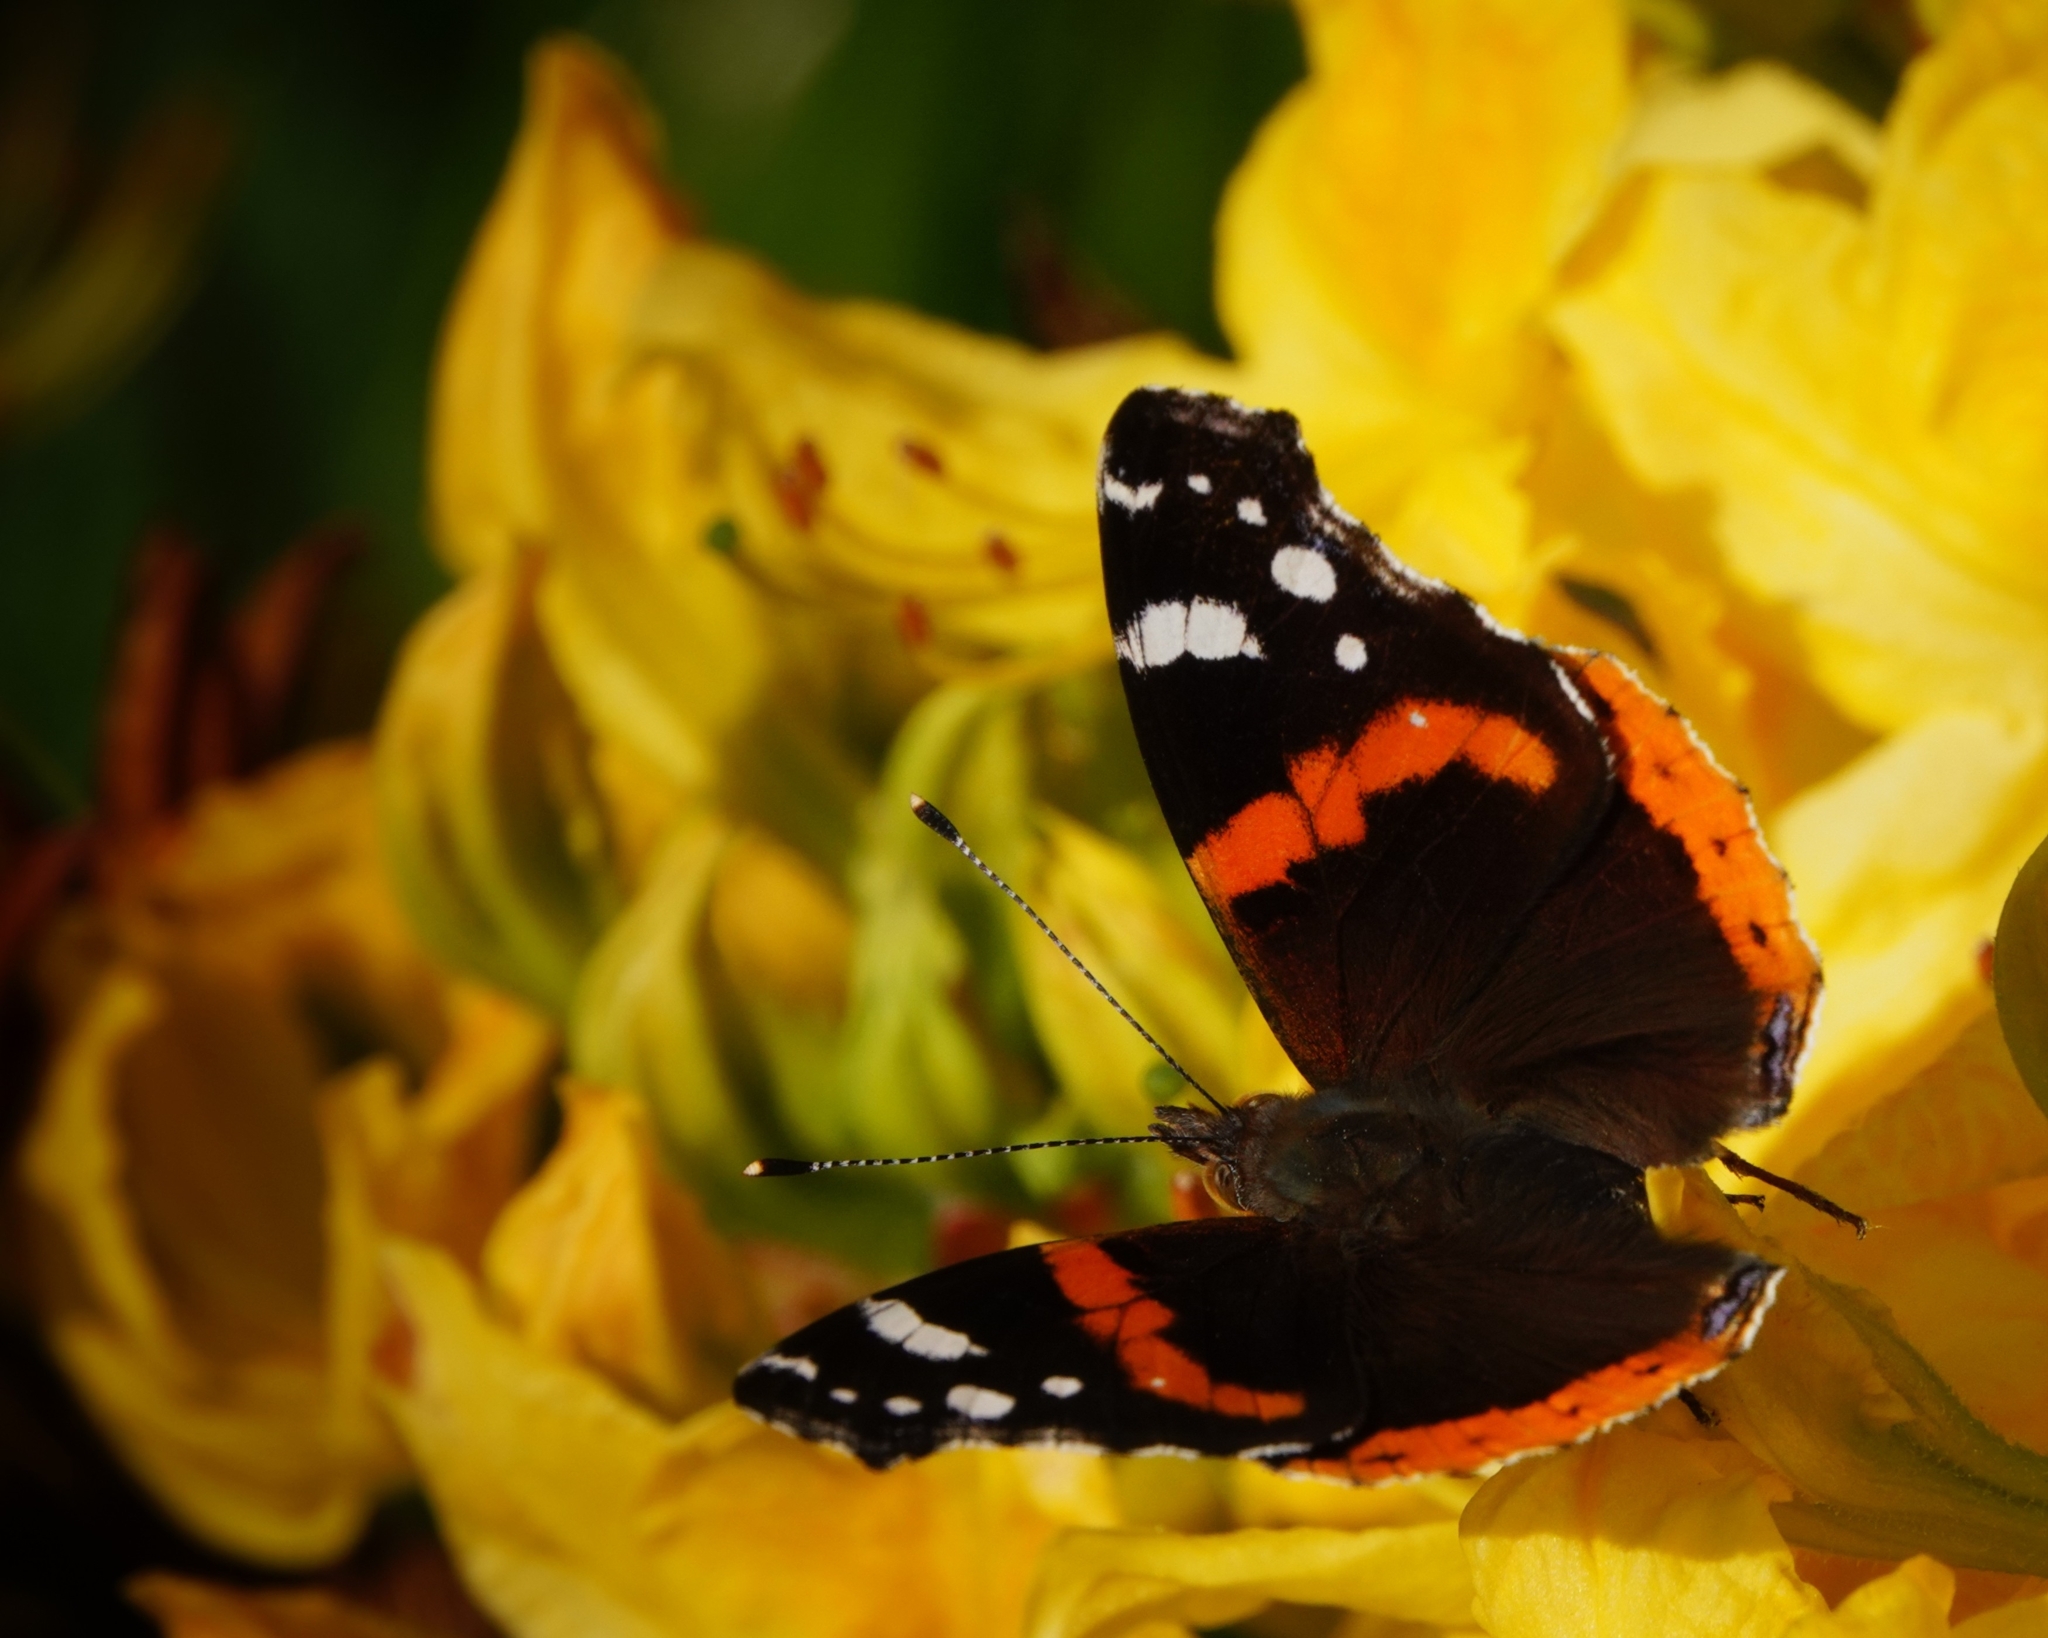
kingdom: Animalia
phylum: Arthropoda
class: Insecta
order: Lepidoptera
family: Nymphalidae
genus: Vanessa
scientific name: Vanessa atalanta
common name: Red admiral
